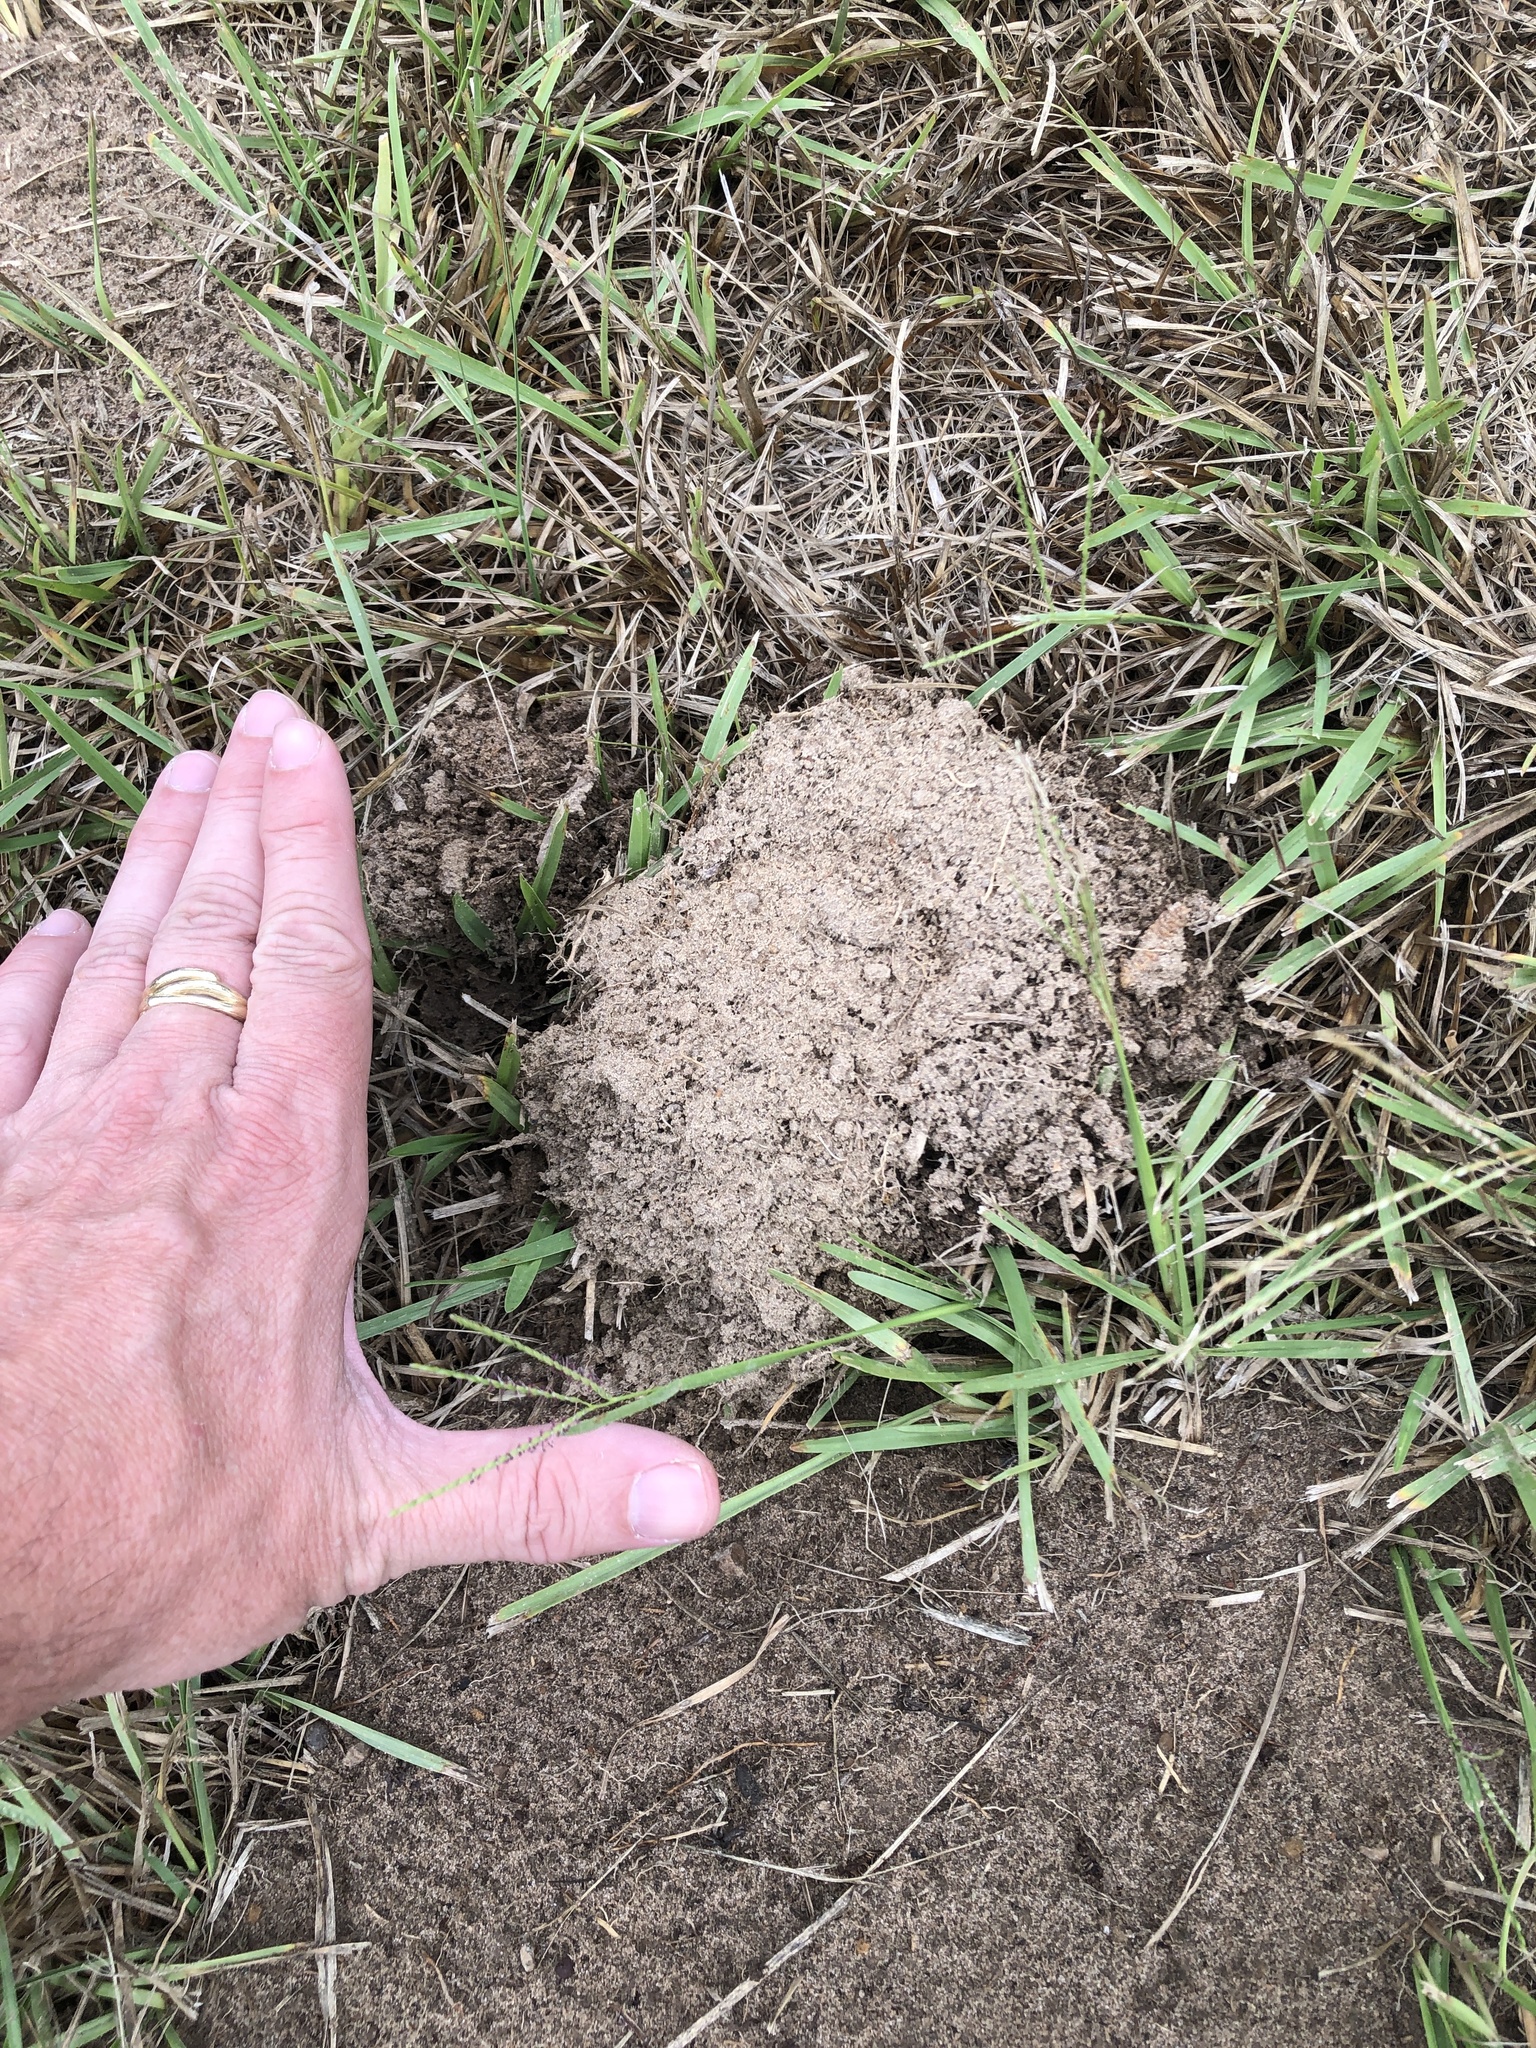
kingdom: Animalia
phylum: Chordata
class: Mammalia
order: Rodentia
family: Geomyidae
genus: Geomys
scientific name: Geomys breviceps
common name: Baird's pocket gopher
